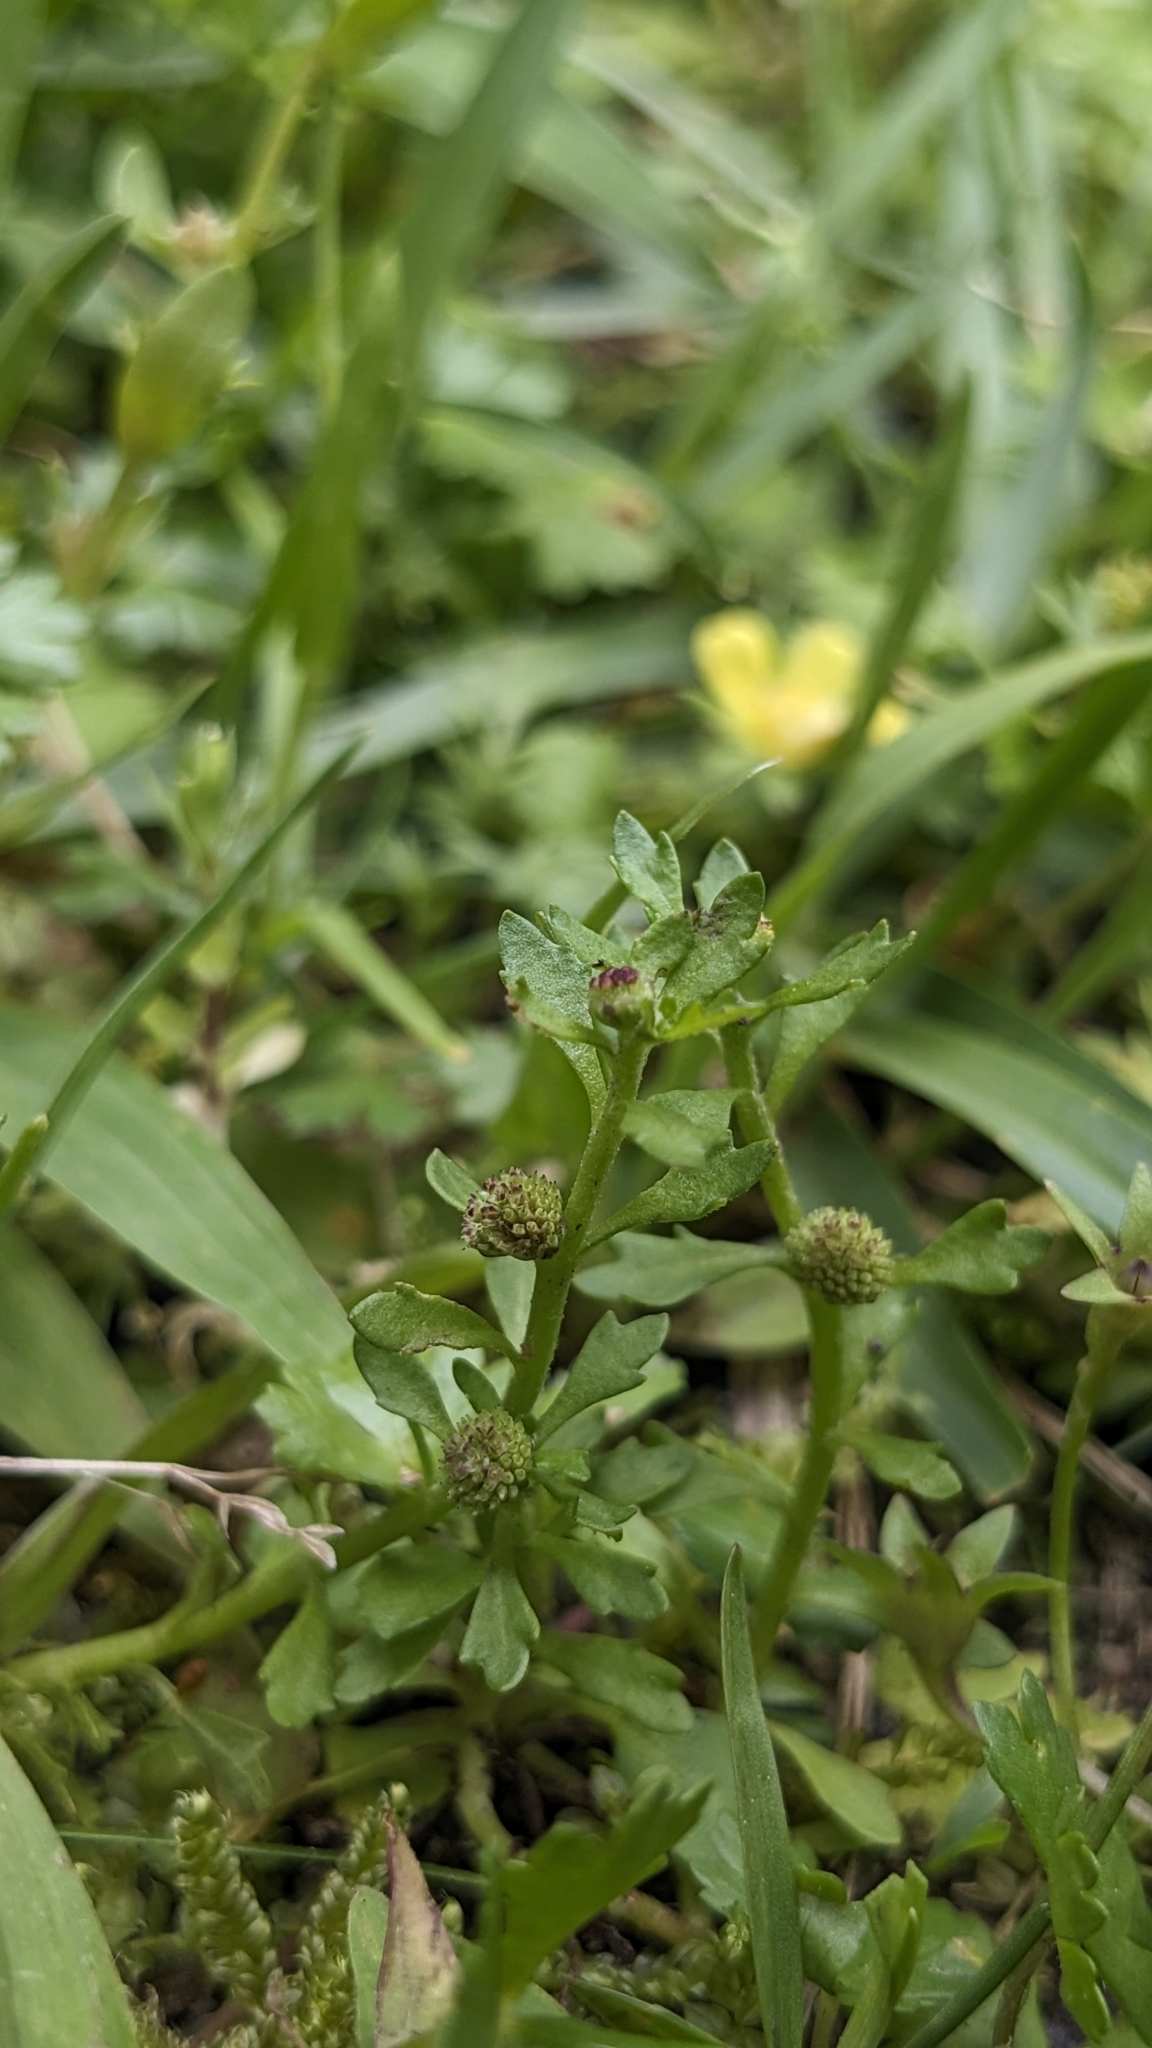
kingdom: Plantae
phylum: Tracheophyta
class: Magnoliopsida
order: Asterales
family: Asteraceae
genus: Centipeda
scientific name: Centipeda minima
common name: Spreading sneezeweed
